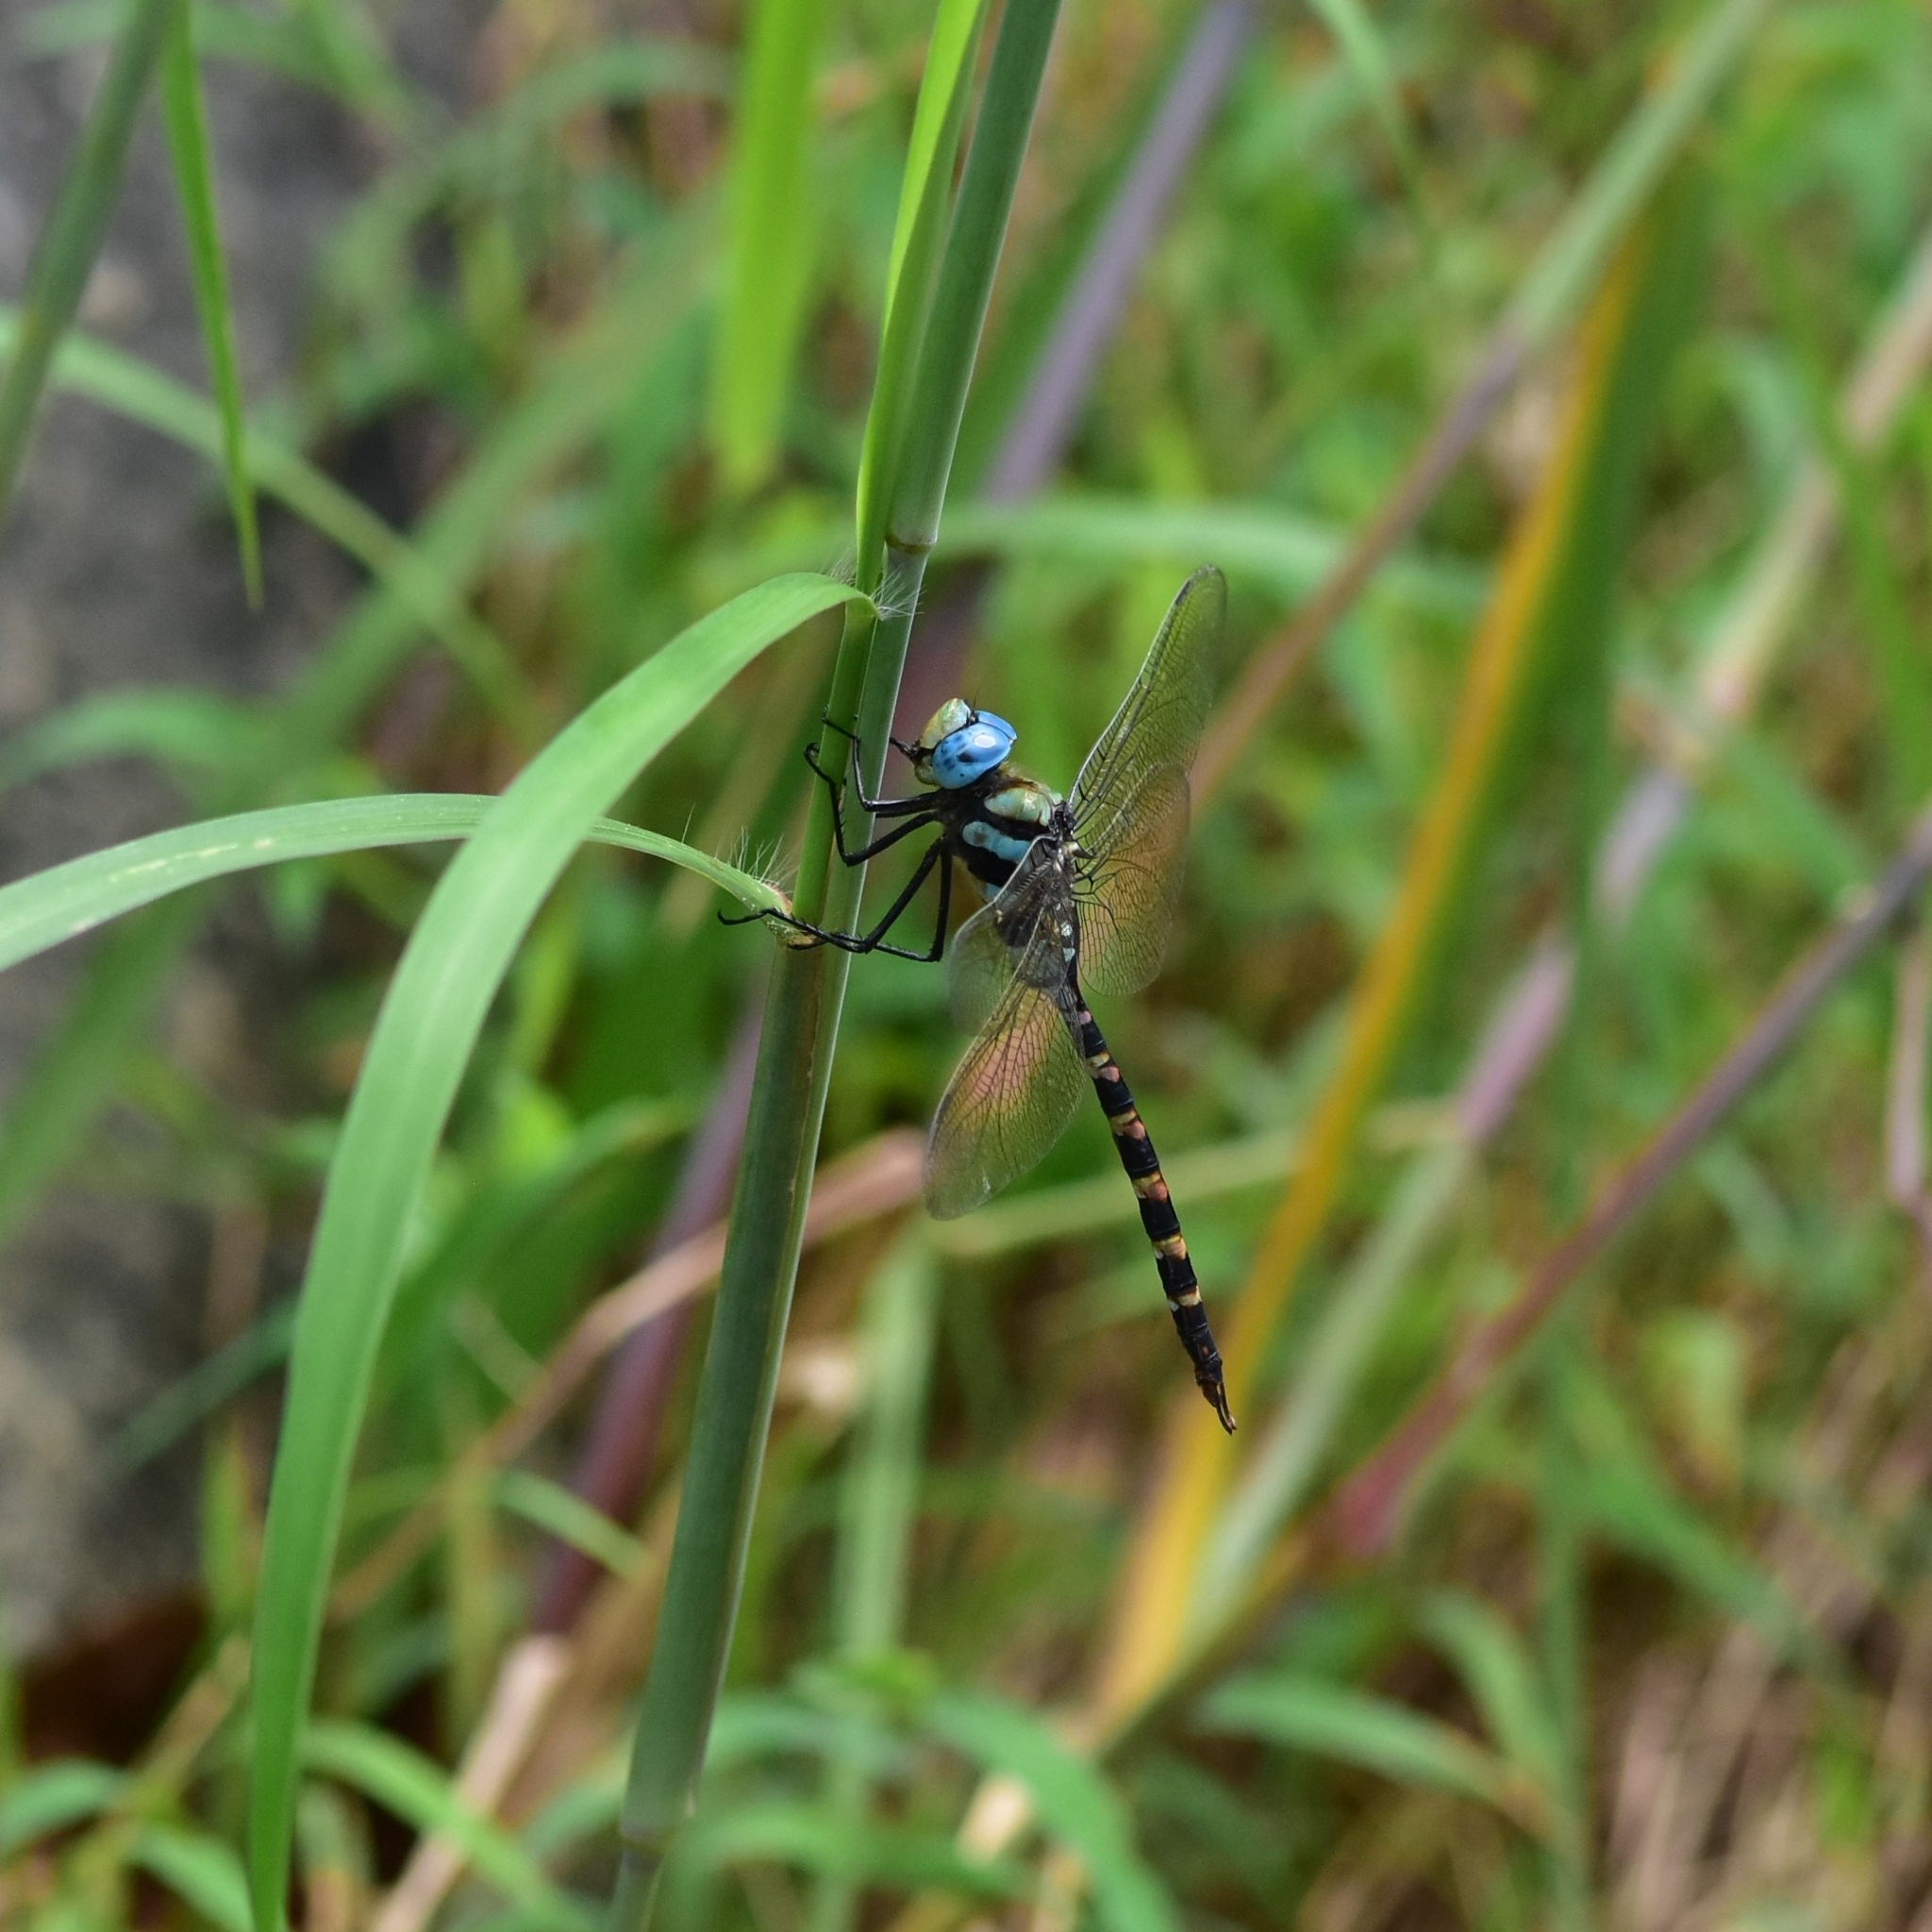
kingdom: Animalia
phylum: Arthropoda
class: Insecta
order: Odonata
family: Aeshnidae
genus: Anax
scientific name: Anax immaculifrons
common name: Magnificent emperor
